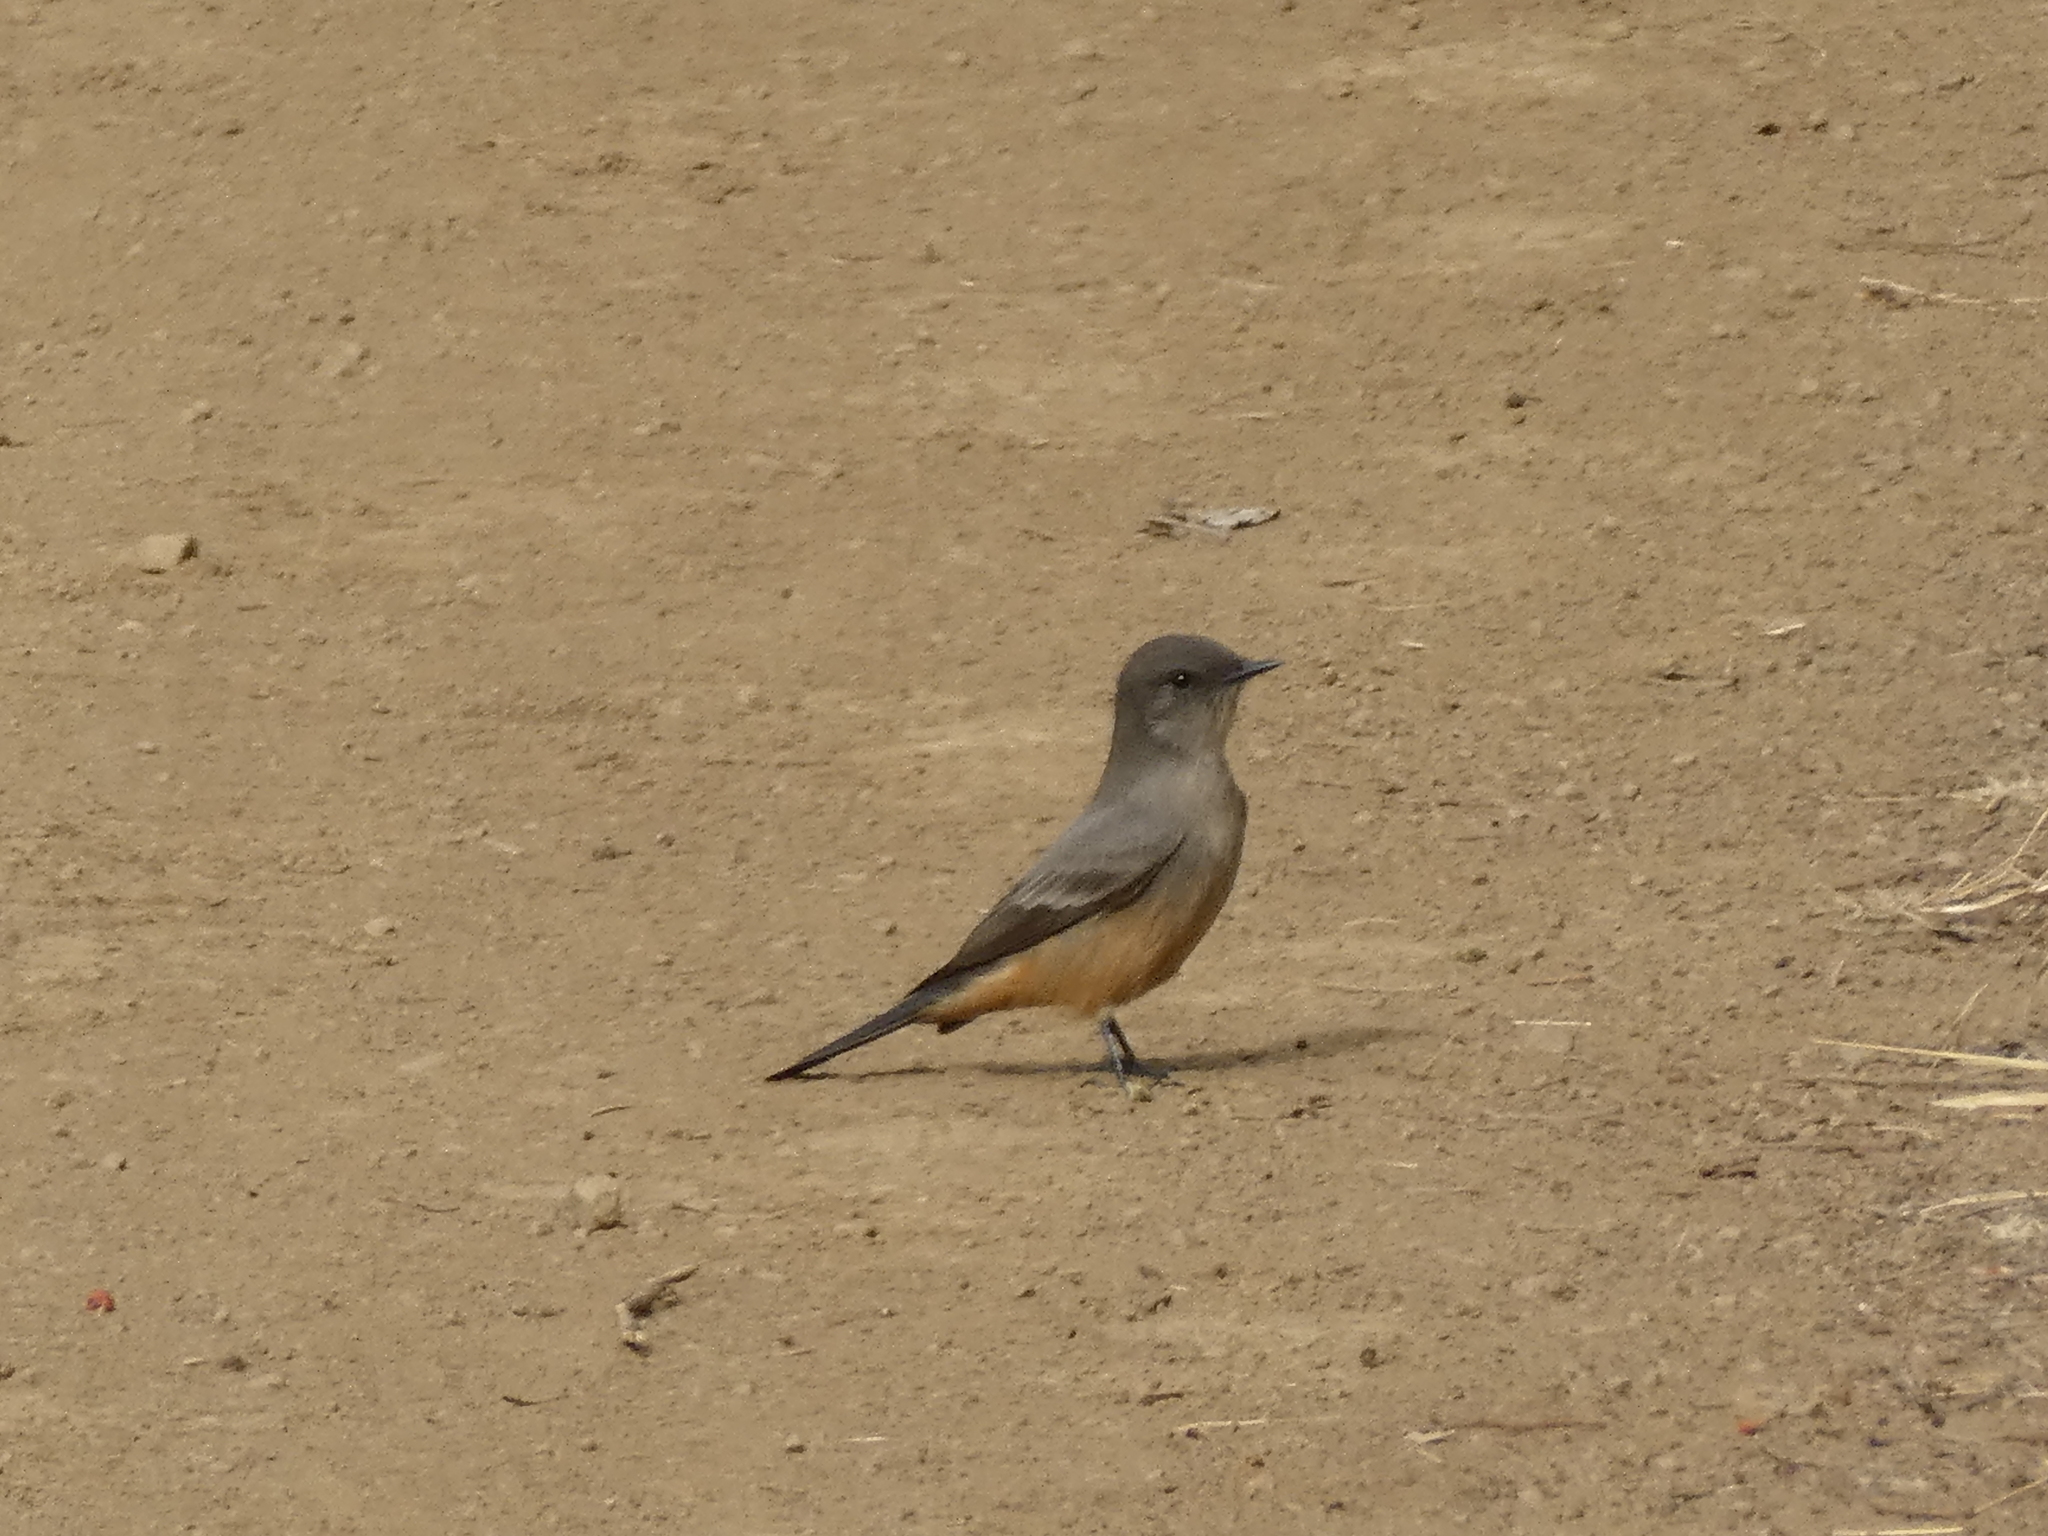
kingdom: Animalia
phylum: Chordata
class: Aves
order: Passeriformes
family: Tyrannidae
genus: Sayornis
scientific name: Sayornis saya
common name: Say's phoebe
